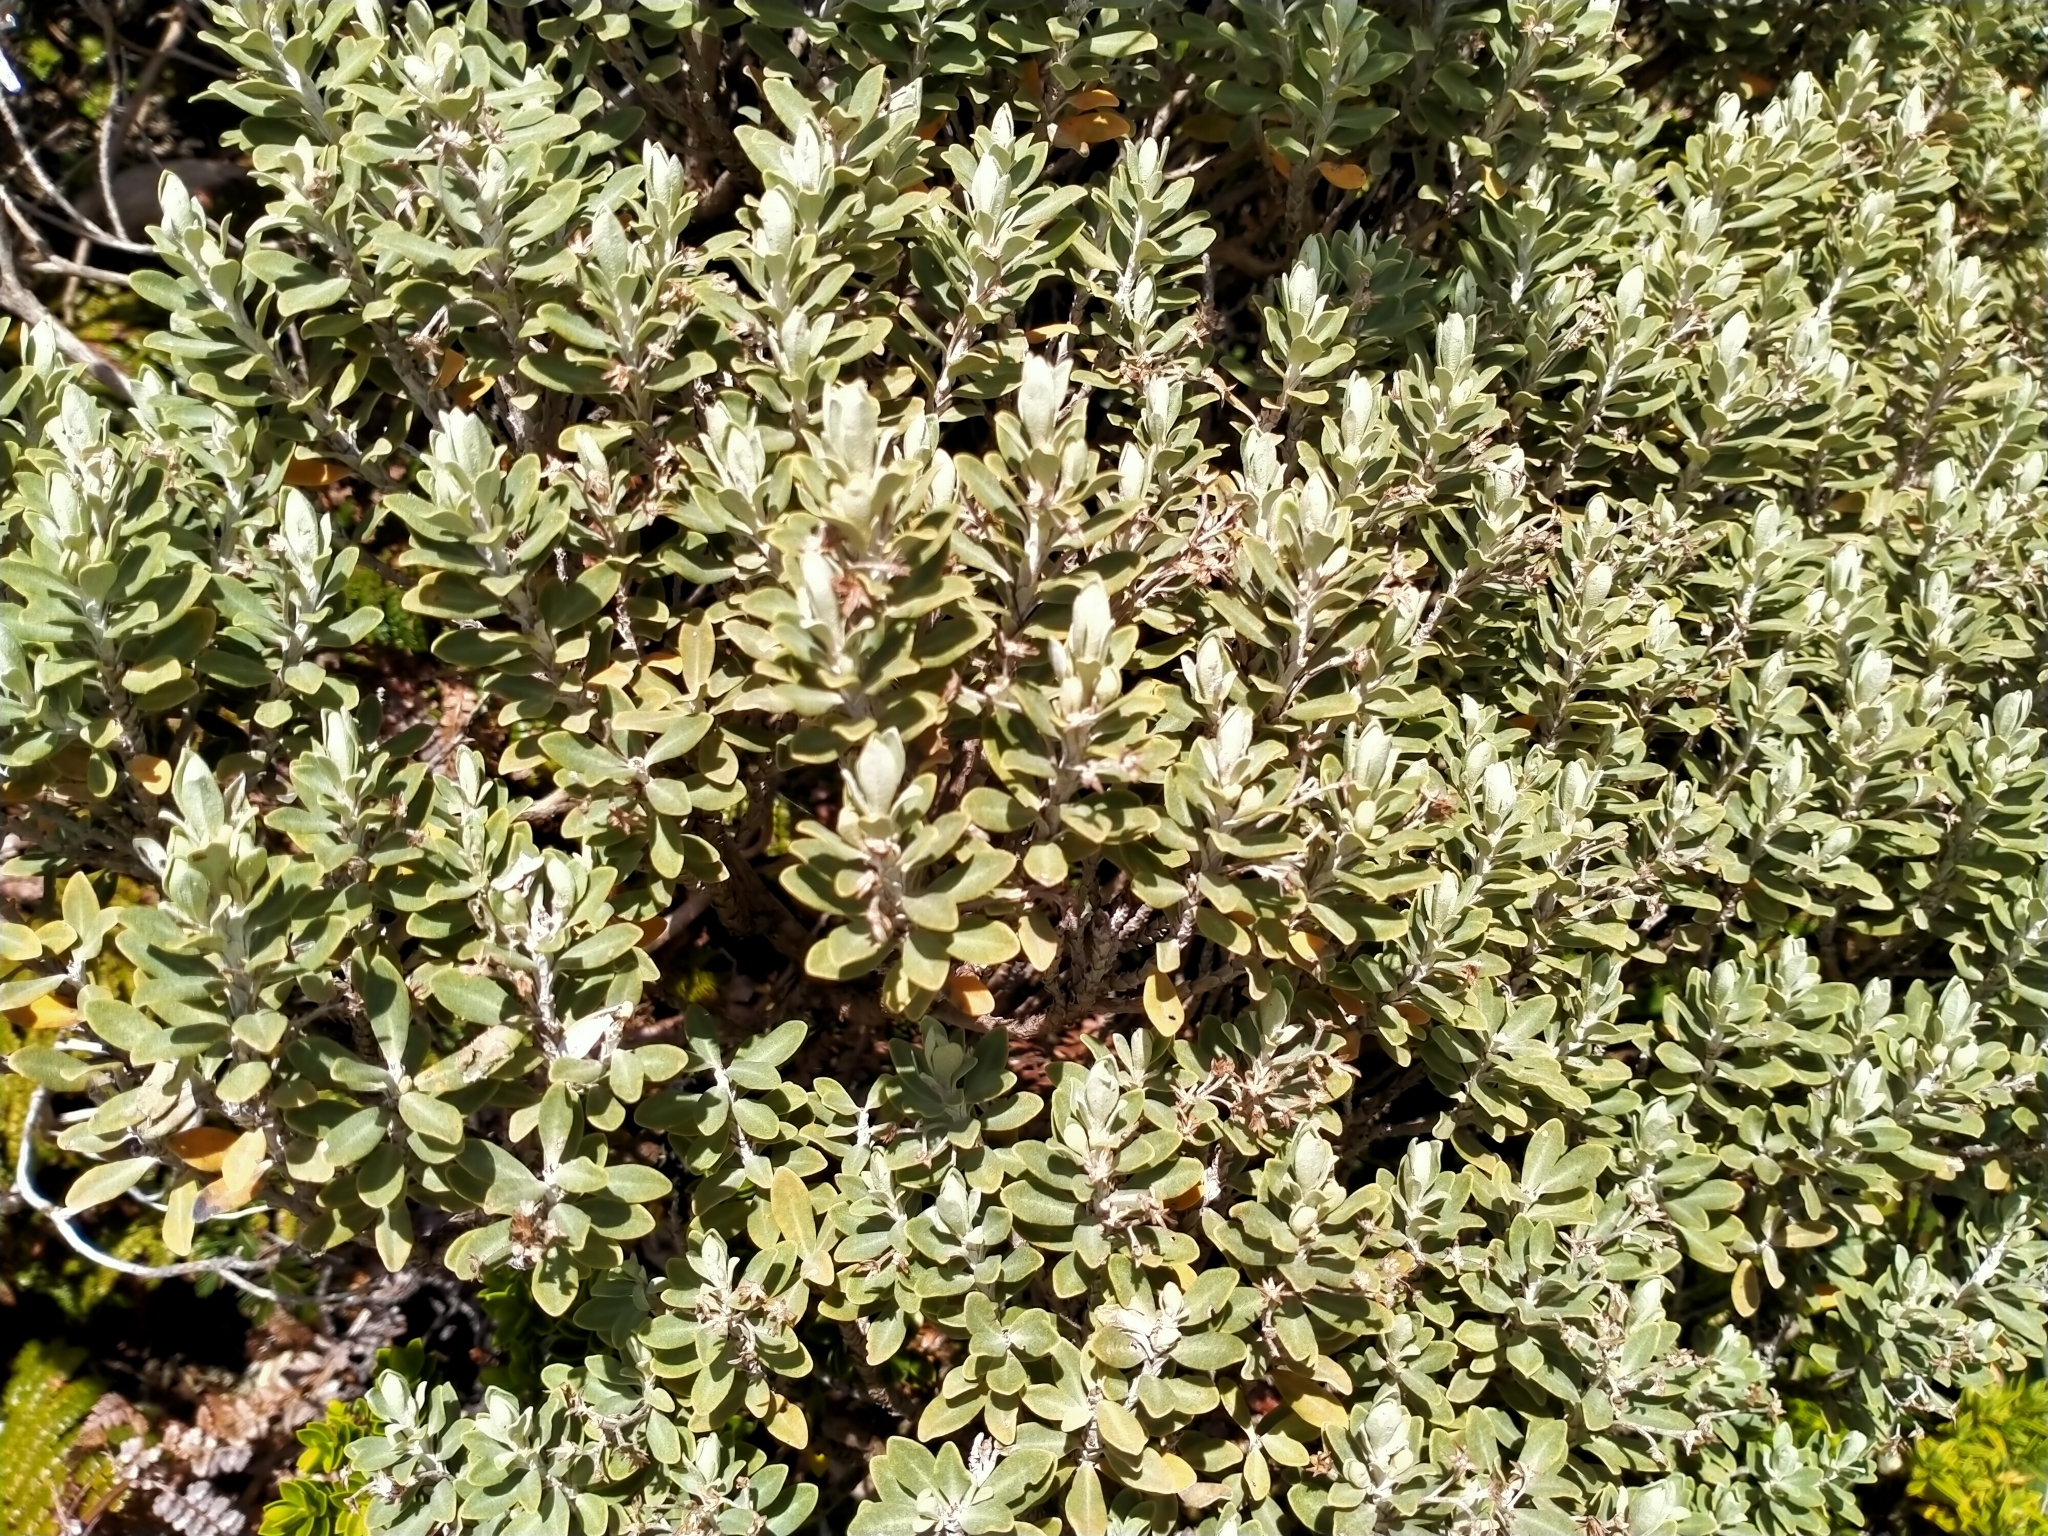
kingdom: Plantae
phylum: Tracheophyta
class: Magnoliopsida
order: Asterales
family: Asteraceae
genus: Olearia
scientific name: Olearia moschata
